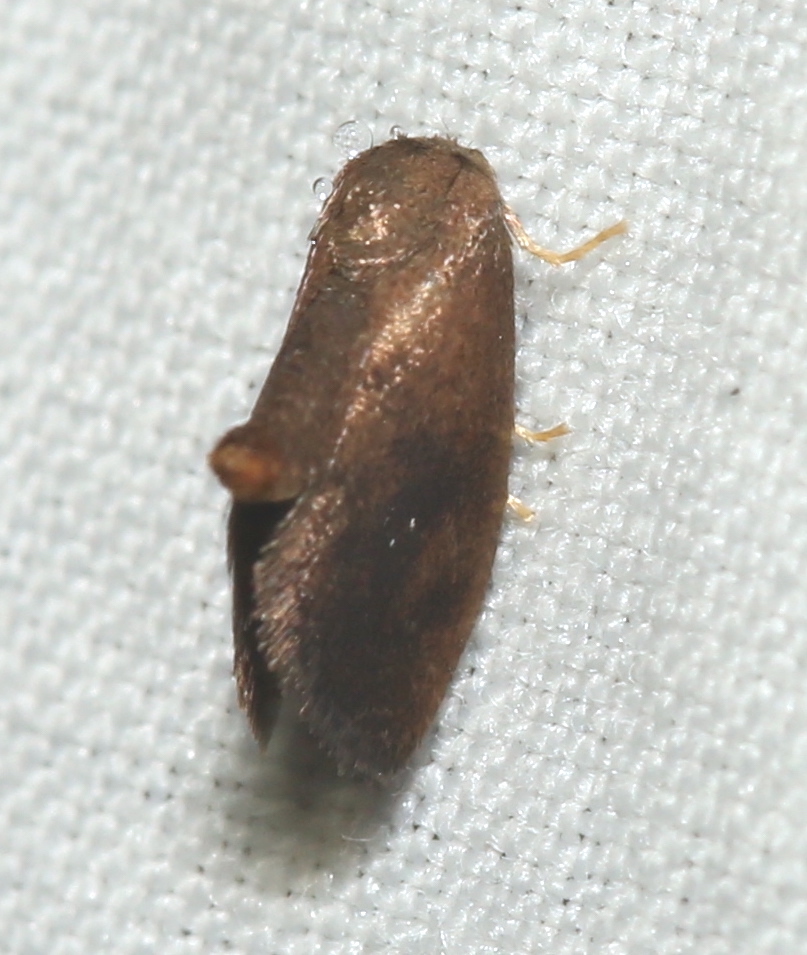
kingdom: Animalia
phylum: Arthropoda
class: Insecta
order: Lepidoptera
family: Limacodidae
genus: Heterogenea
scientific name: Heterogenea shurtleffi
